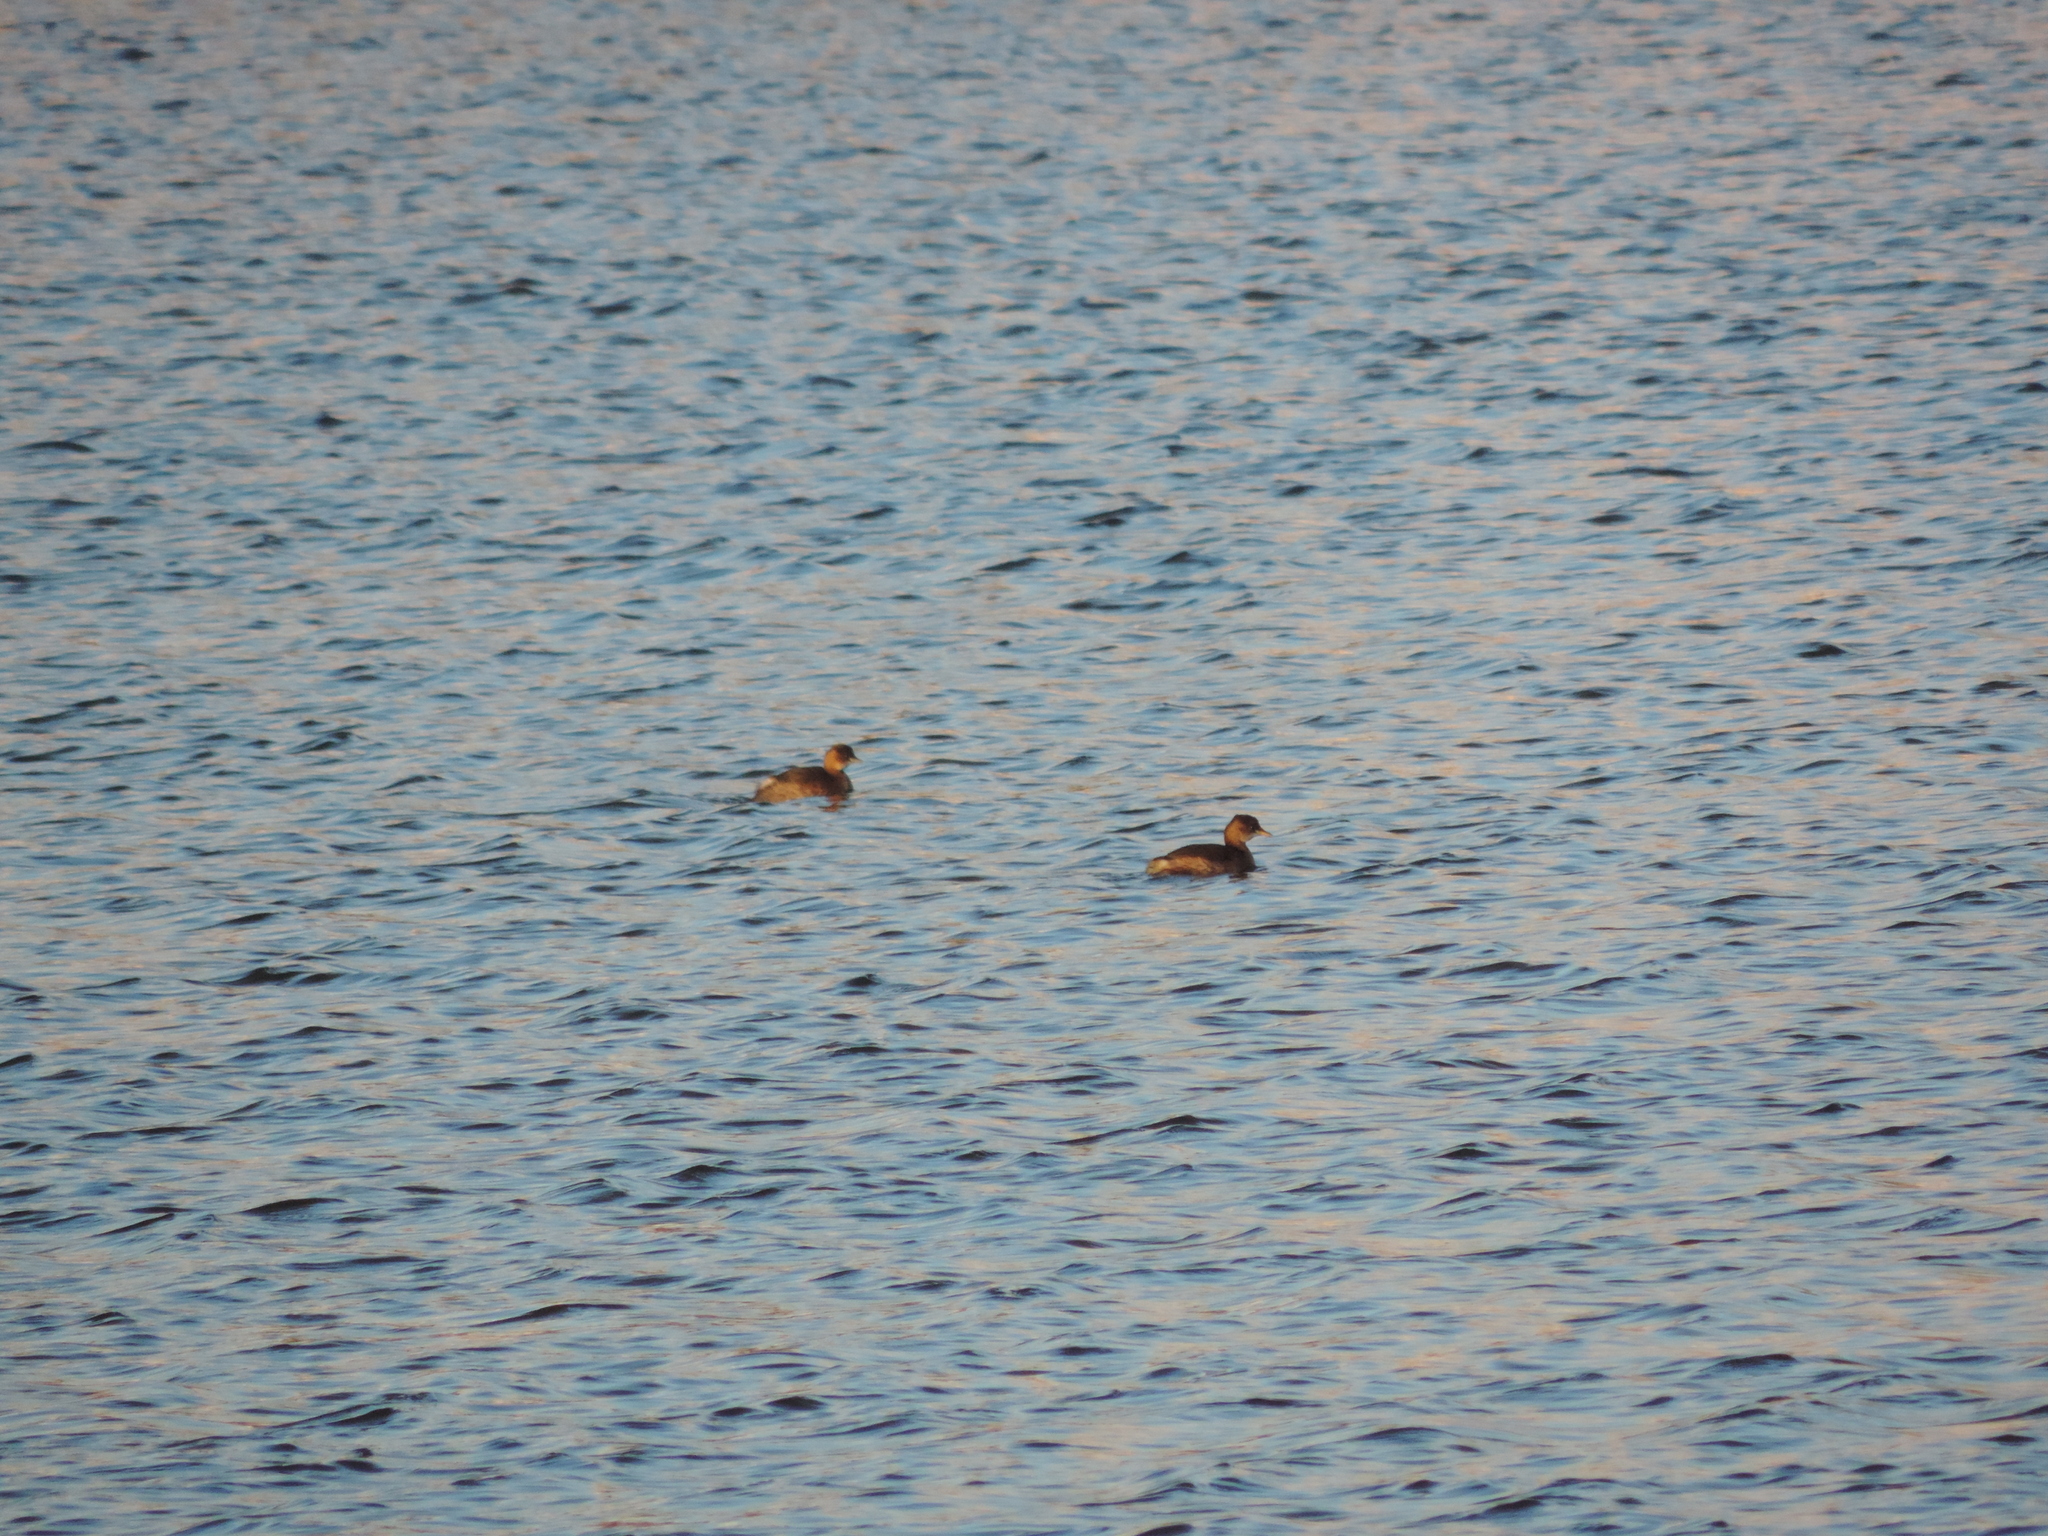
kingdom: Animalia
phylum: Chordata
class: Aves
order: Podicipediformes
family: Podicipedidae
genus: Tachybaptus
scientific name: Tachybaptus ruficollis
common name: Little grebe
